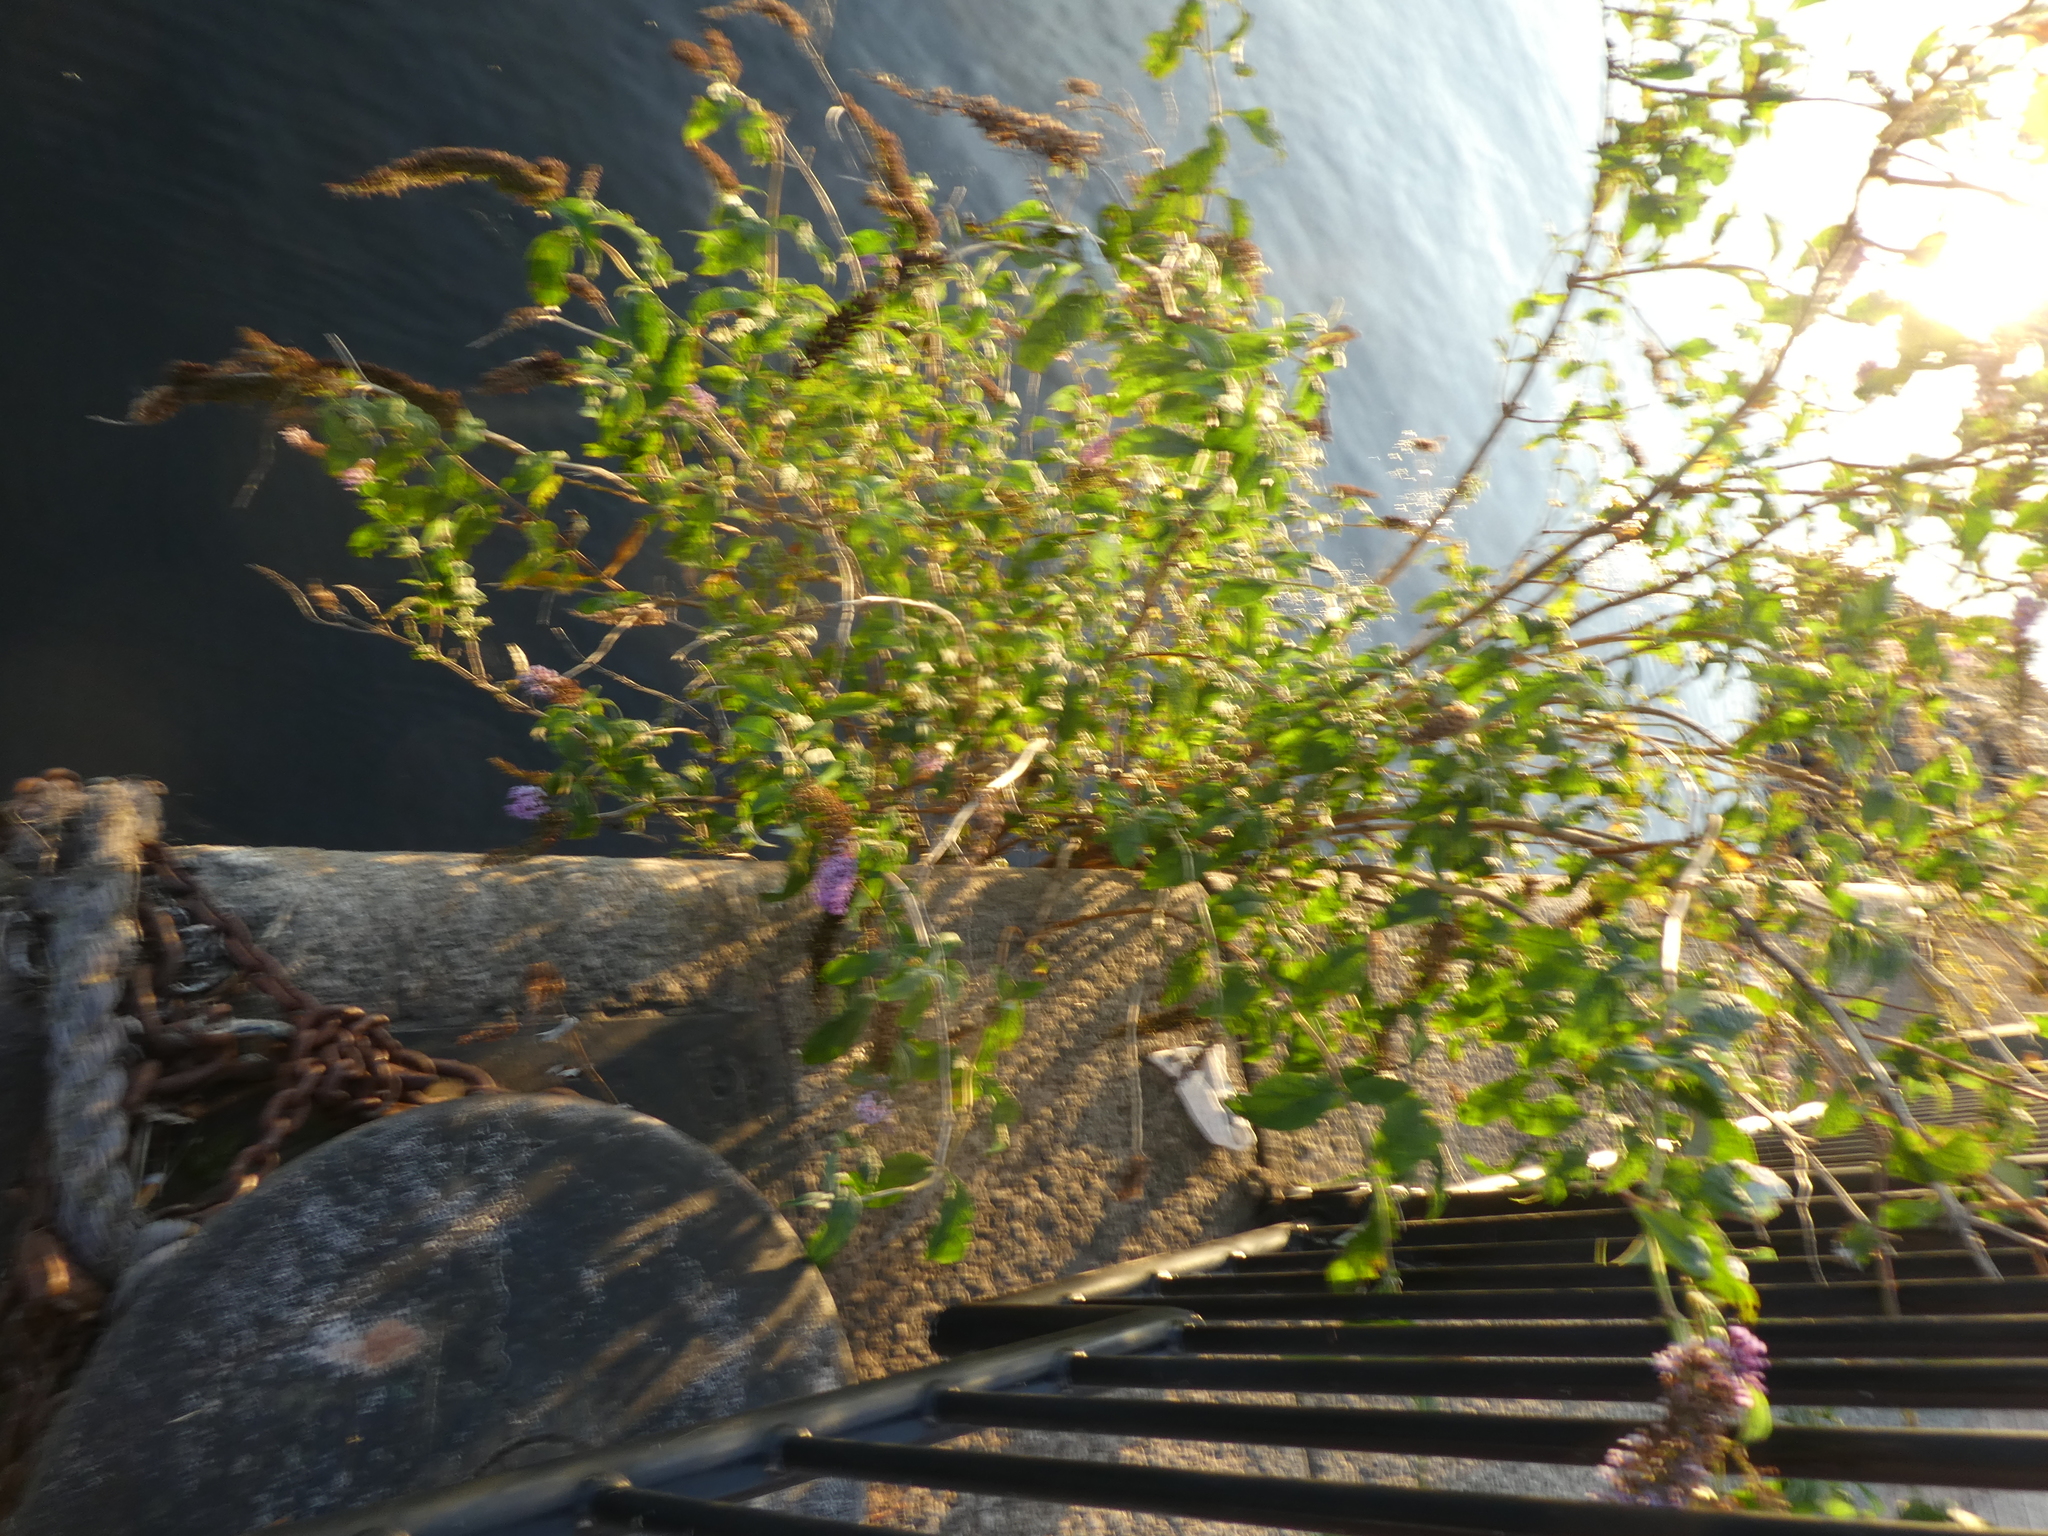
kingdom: Plantae
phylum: Tracheophyta
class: Magnoliopsida
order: Lamiales
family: Scrophulariaceae
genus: Buddleja
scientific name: Buddleja davidii
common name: Butterfly-bush
